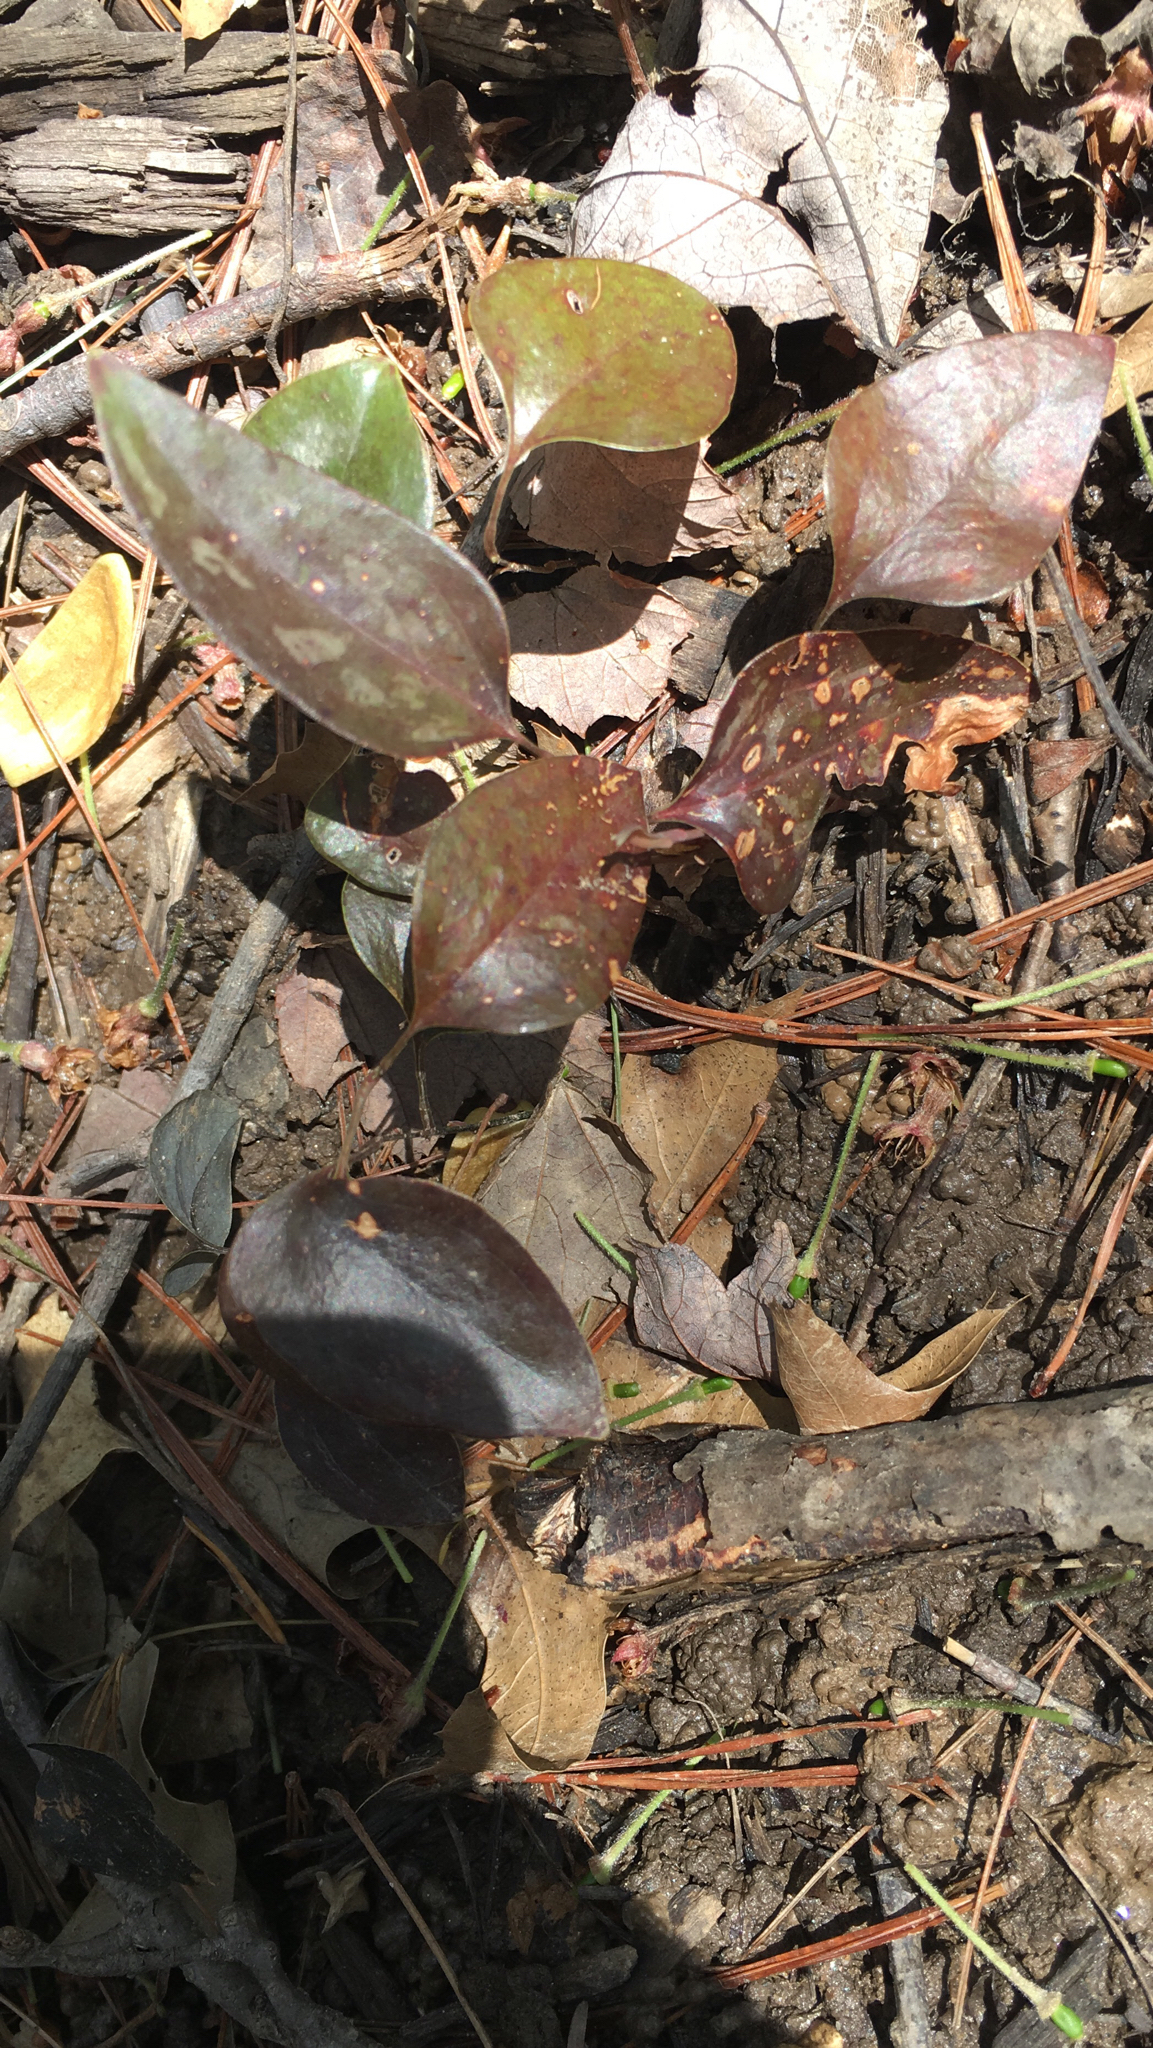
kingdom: Plantae
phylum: Tracheophyta
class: Liliopsida
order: Liliales
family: Smilacaceae
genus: Smilax
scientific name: Smilax glauca
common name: Cat greenbrier
